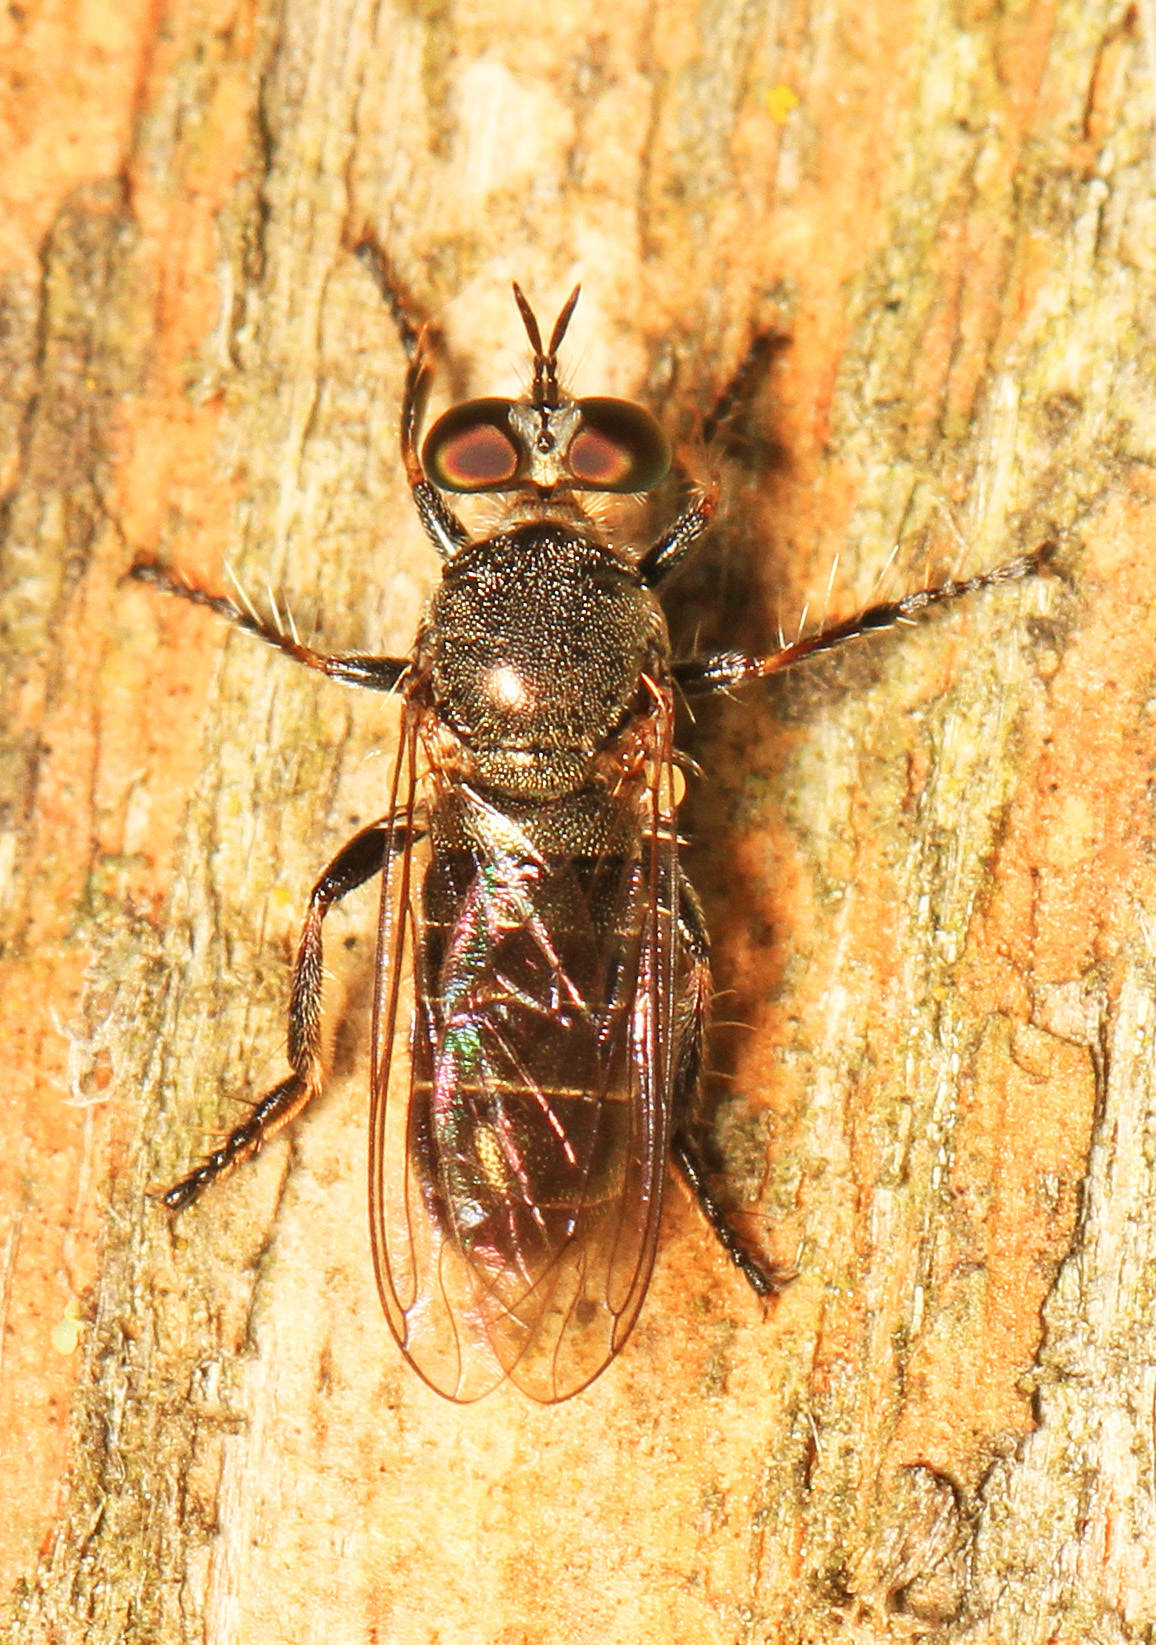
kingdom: Animalia
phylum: Arthropoda
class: Insecta
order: Diptera
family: Asilidae
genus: Atomosia
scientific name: Atomosia puella
